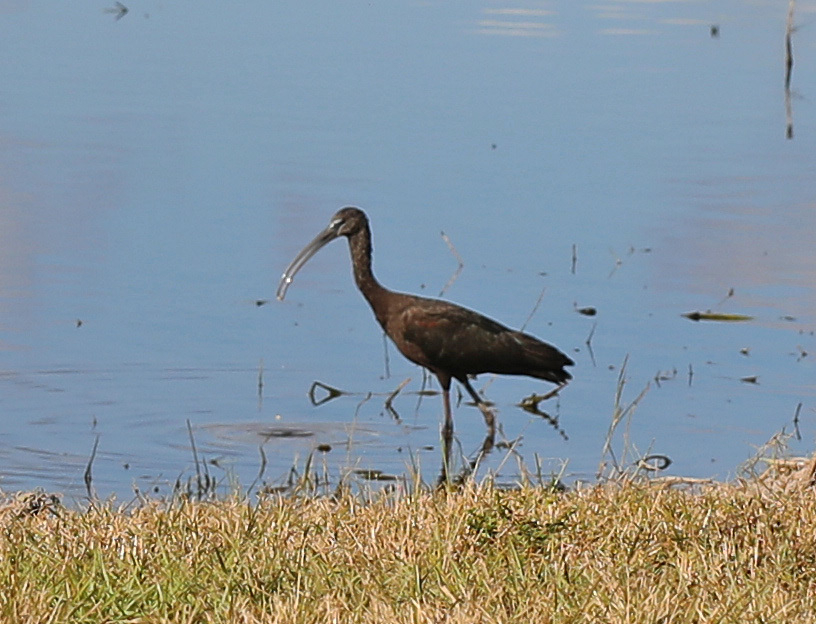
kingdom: Animalia
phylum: Chordata
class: Aves
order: Pelecaniformes
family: Threskiornithidae
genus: Plegadis
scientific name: Plegadis falcinellus
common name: Glossy ibis
